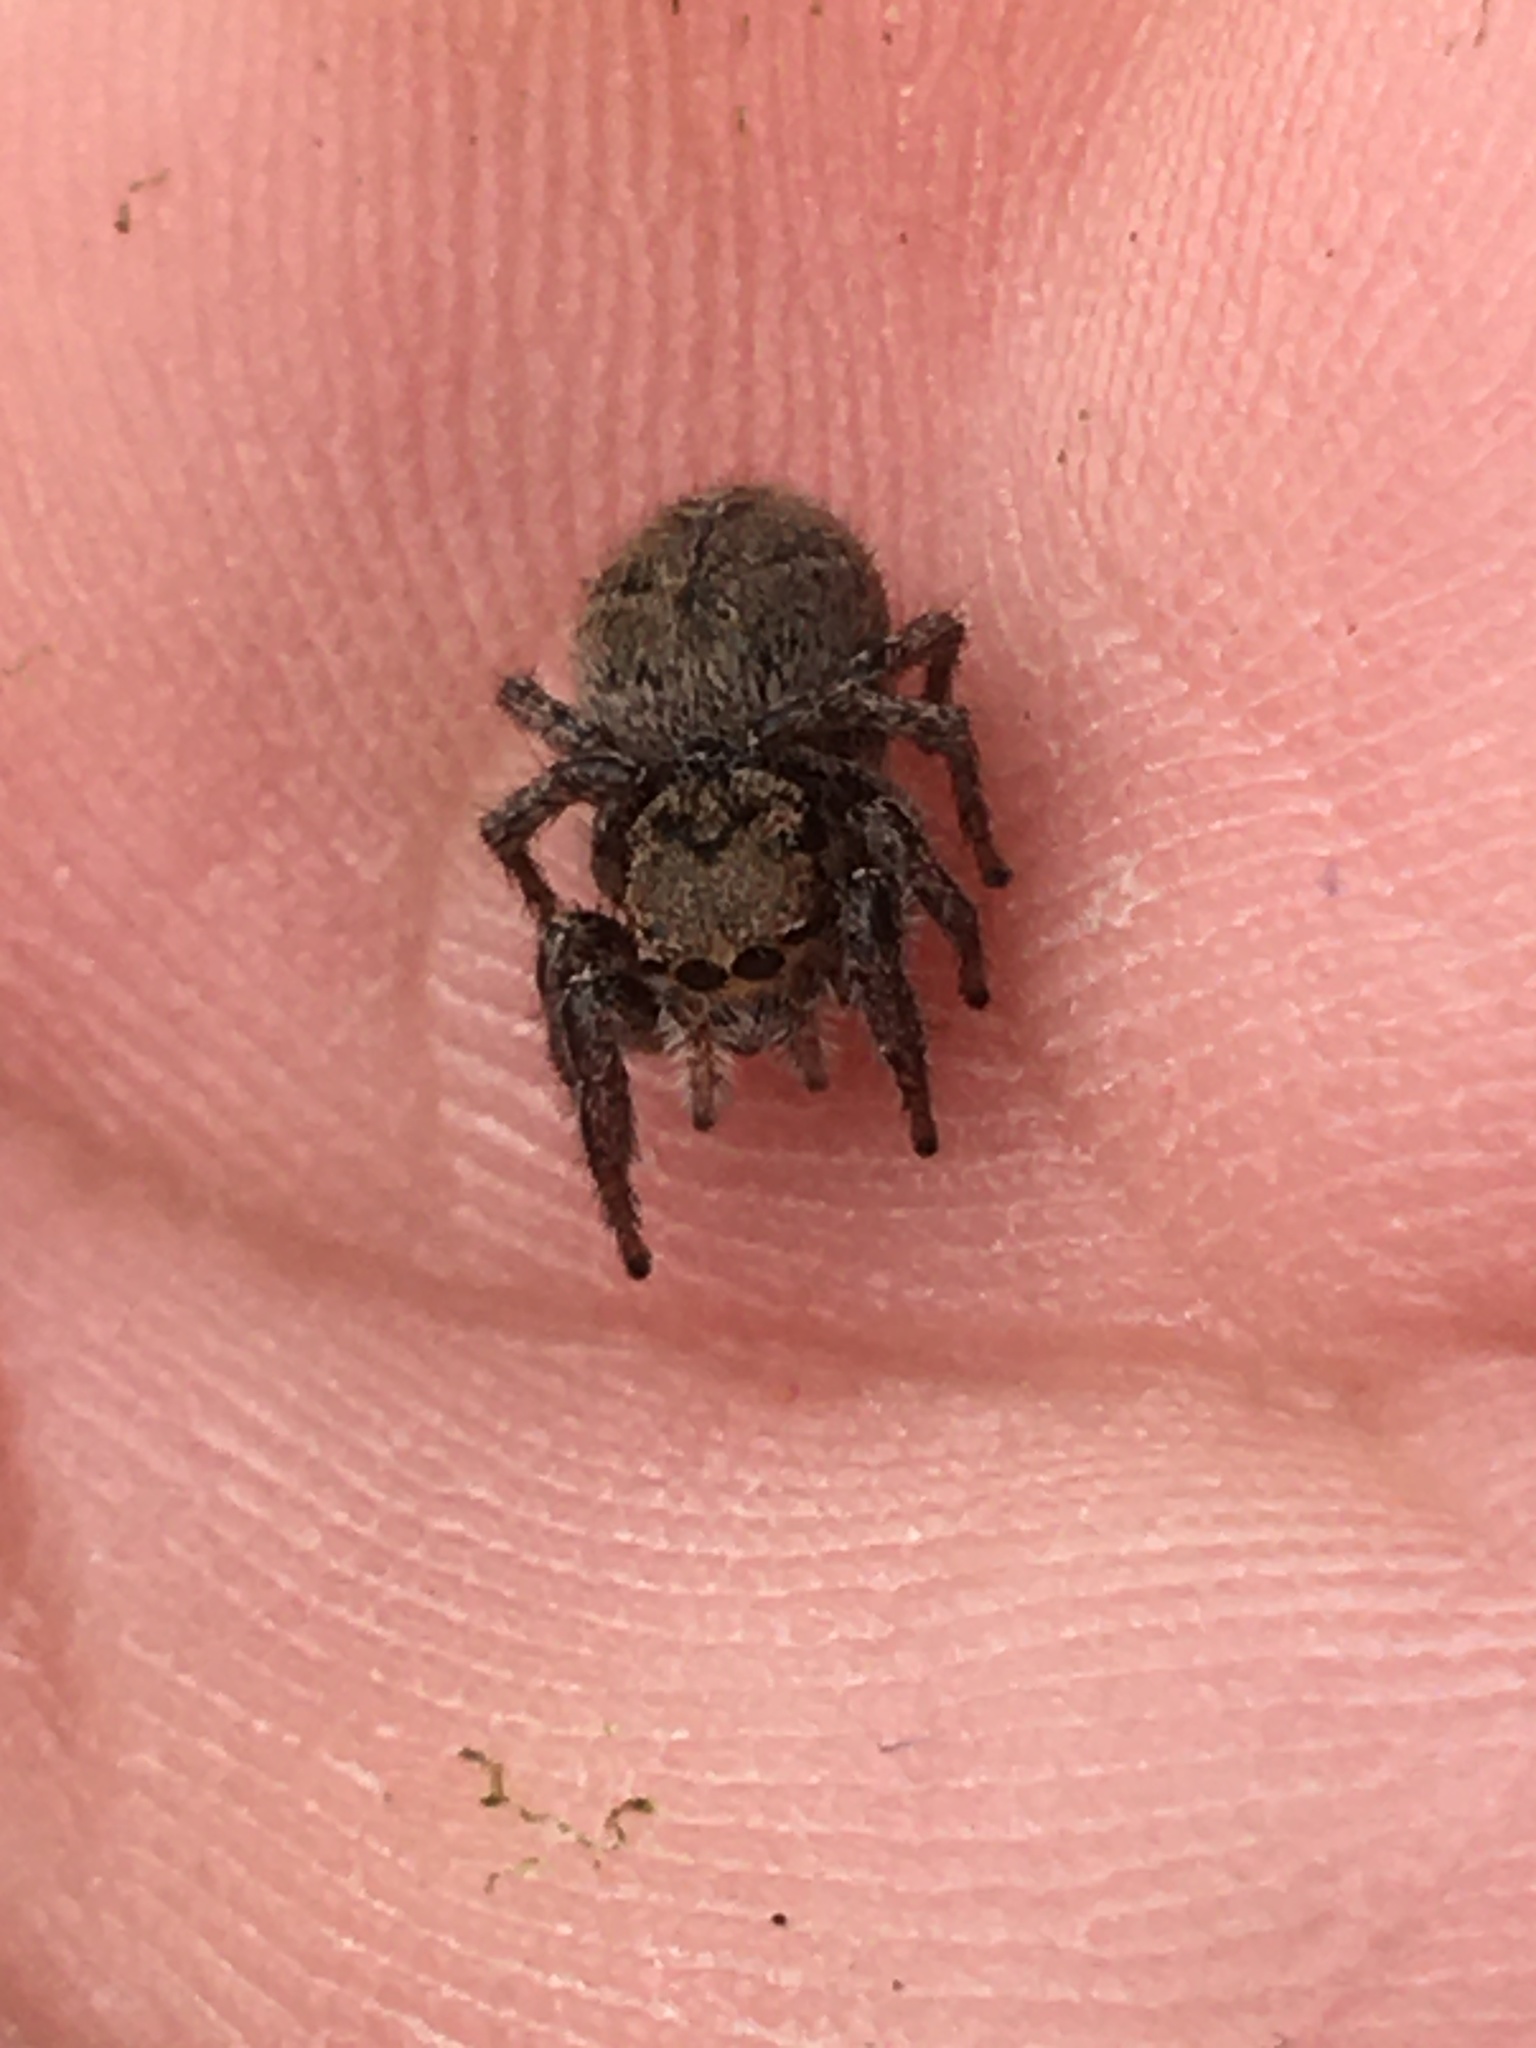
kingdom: Animalia
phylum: Arthropoda
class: Arachnida
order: Araneae
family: Salticidae
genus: Habronattus
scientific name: Habronattus coecatus
